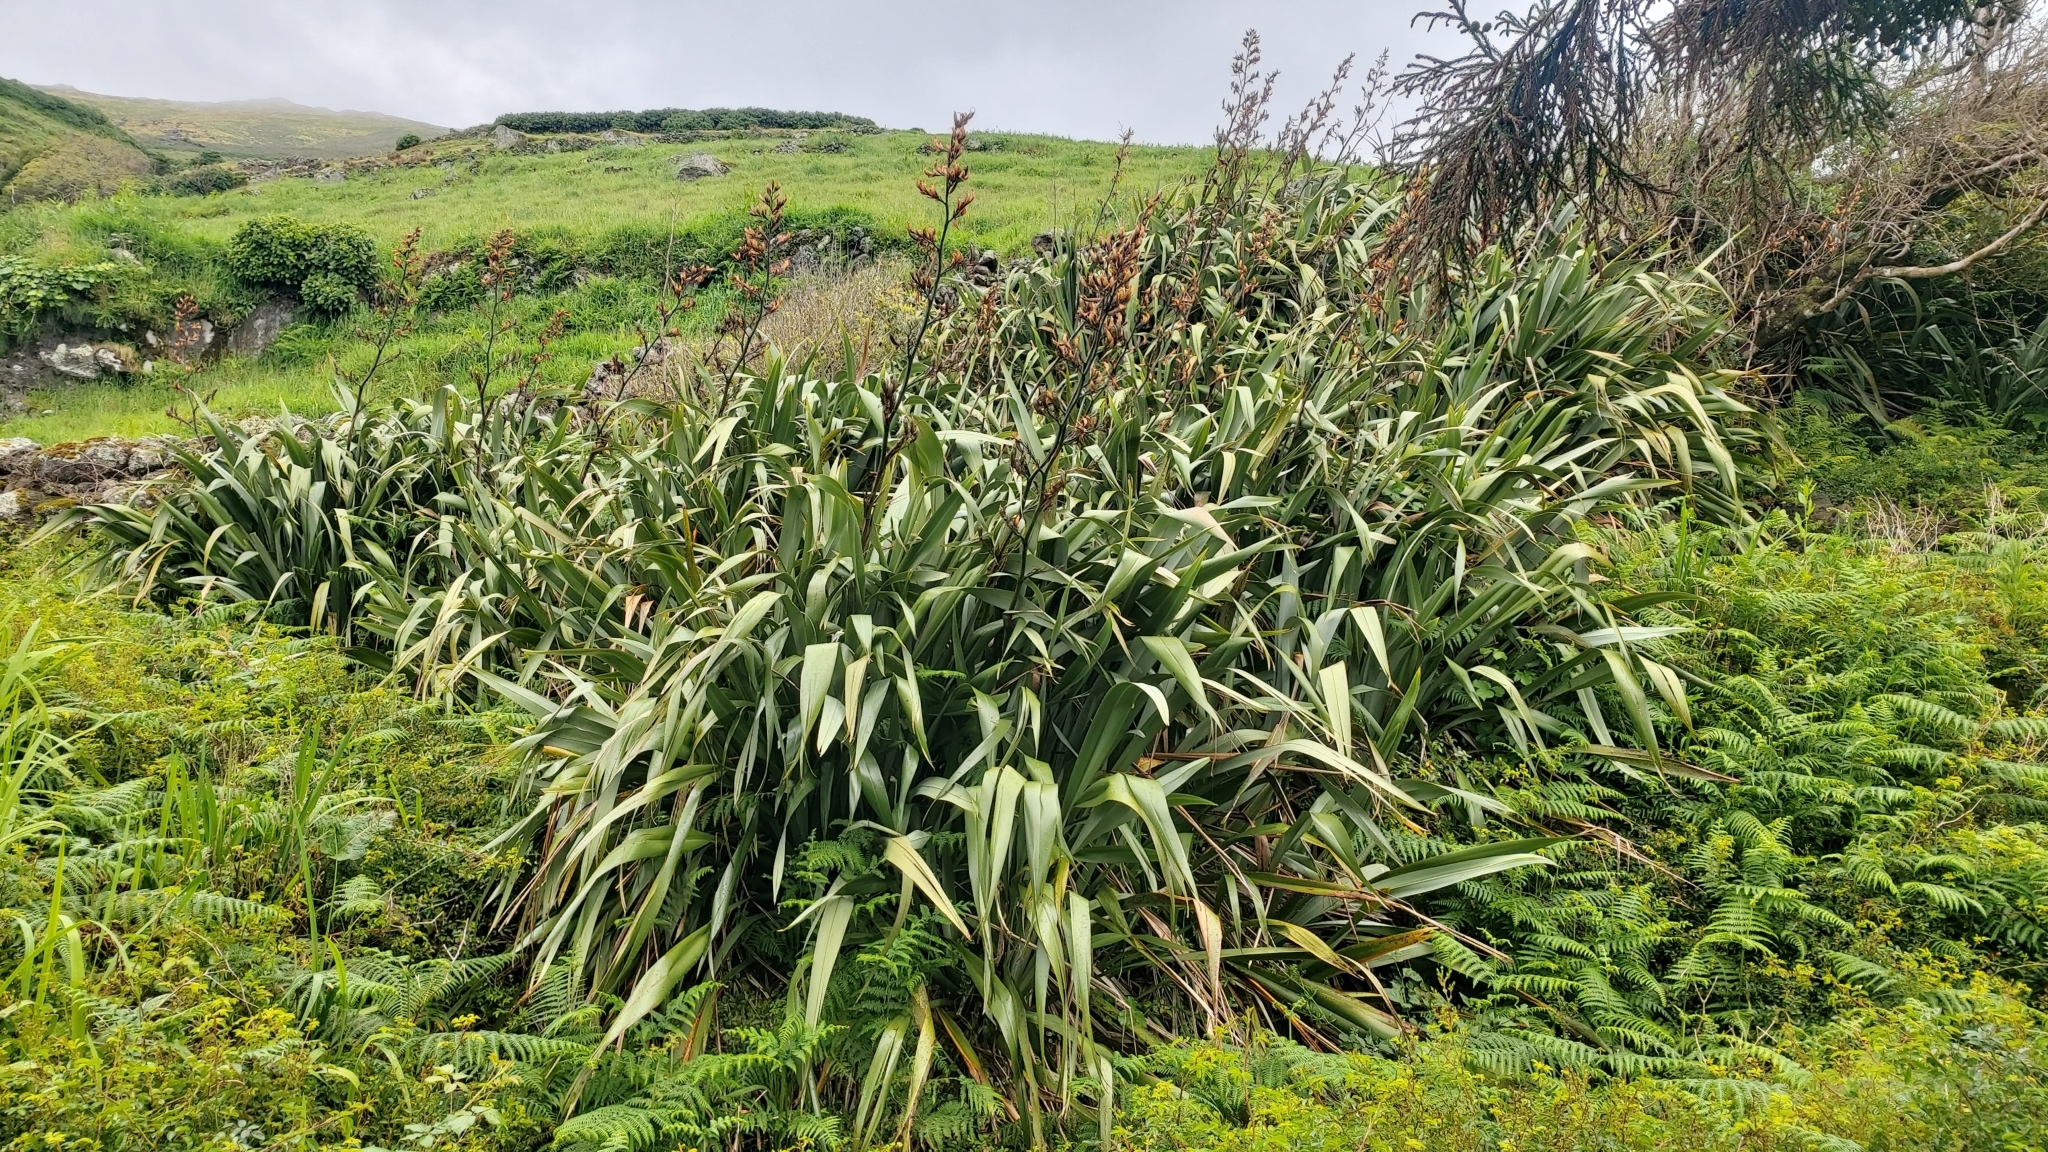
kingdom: Plantae
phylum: Tracheophyta
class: Liliopsida
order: Asparagales
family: Asphodelaceae
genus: Phormium
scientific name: Phormium tenax
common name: New zealand flax
